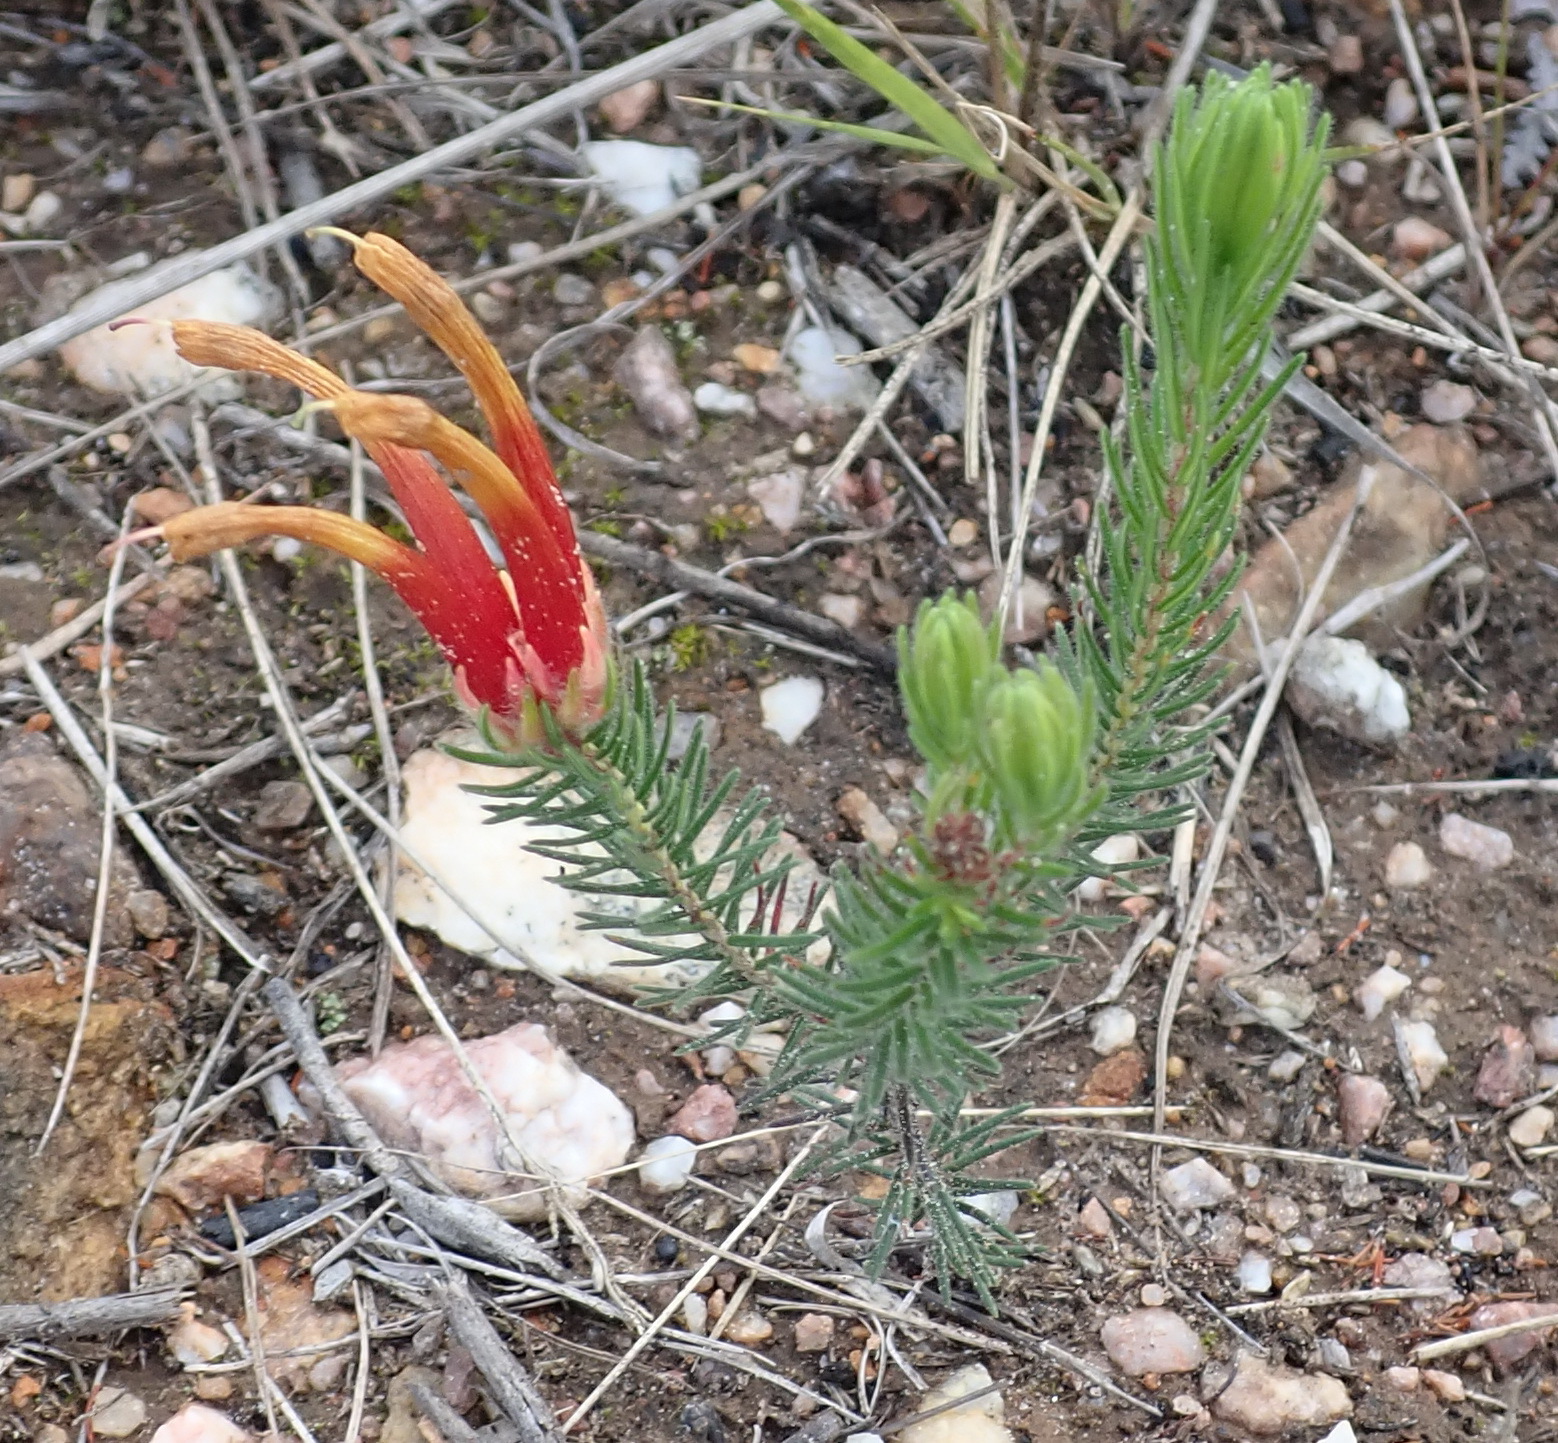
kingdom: Plantae
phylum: Tracheophyta
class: Magnoliopsida
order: Ericales
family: Ericaceae
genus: Erica
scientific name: Erica unicolor
